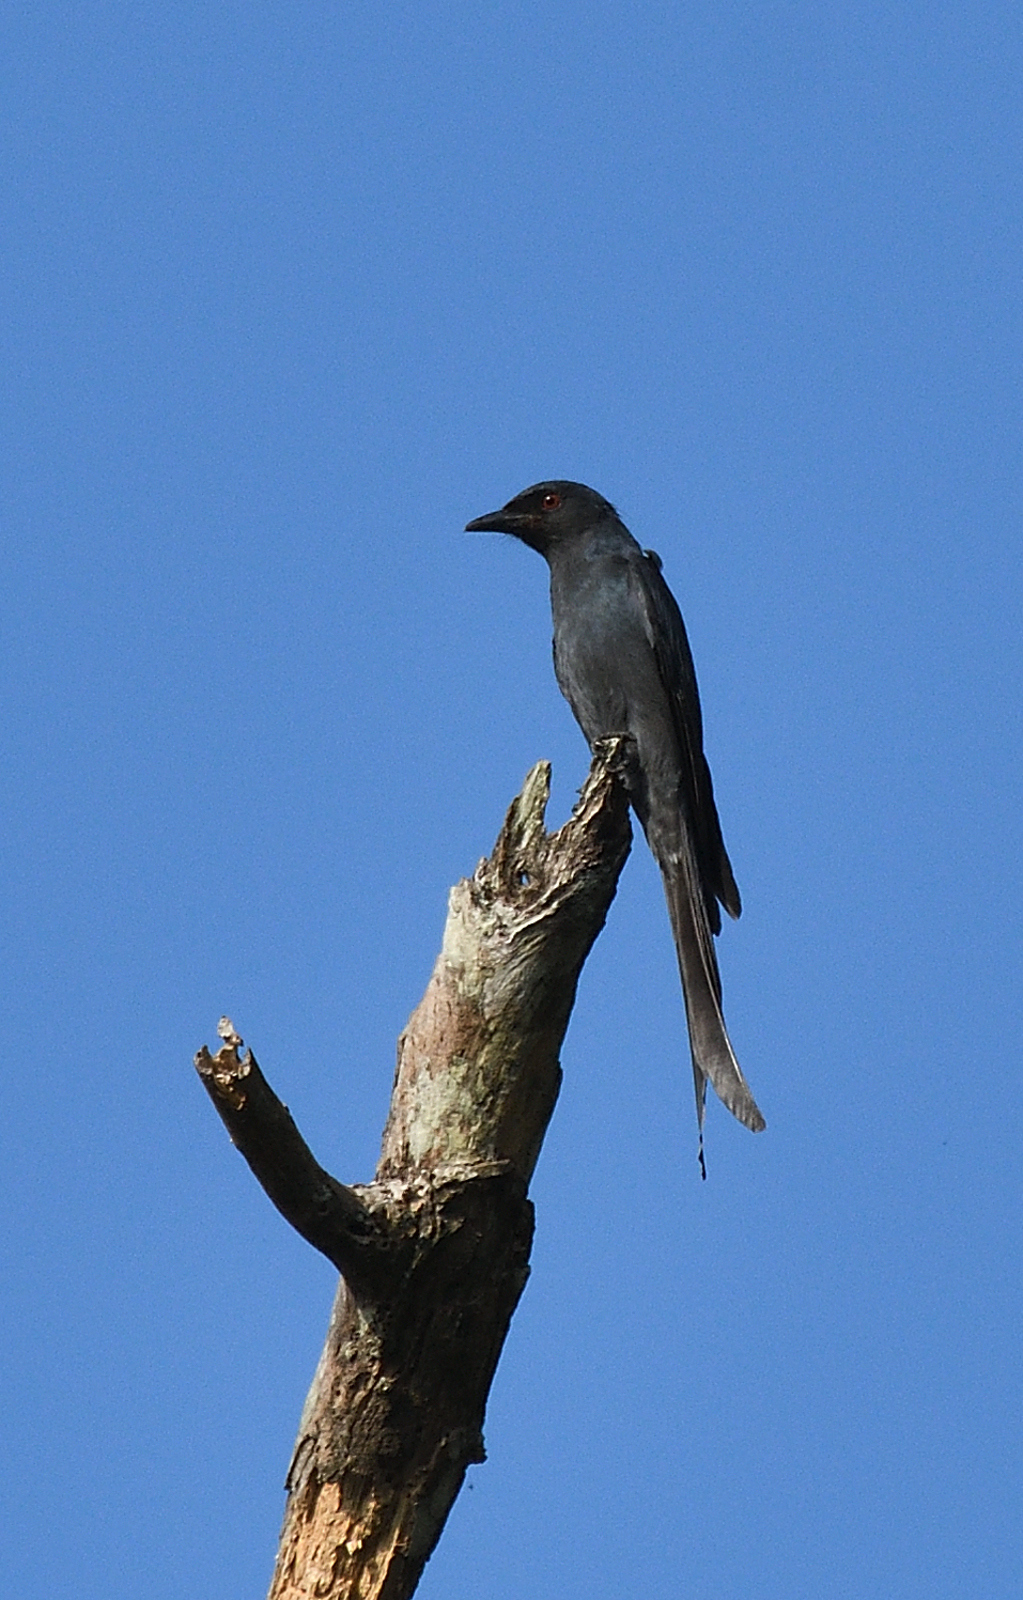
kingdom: Animalia
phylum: Chordata
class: Aves
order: Passeriformes
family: Dicruridae
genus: Dicrurus
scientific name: Dicrurus leucophaeus
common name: Ashy drongo
